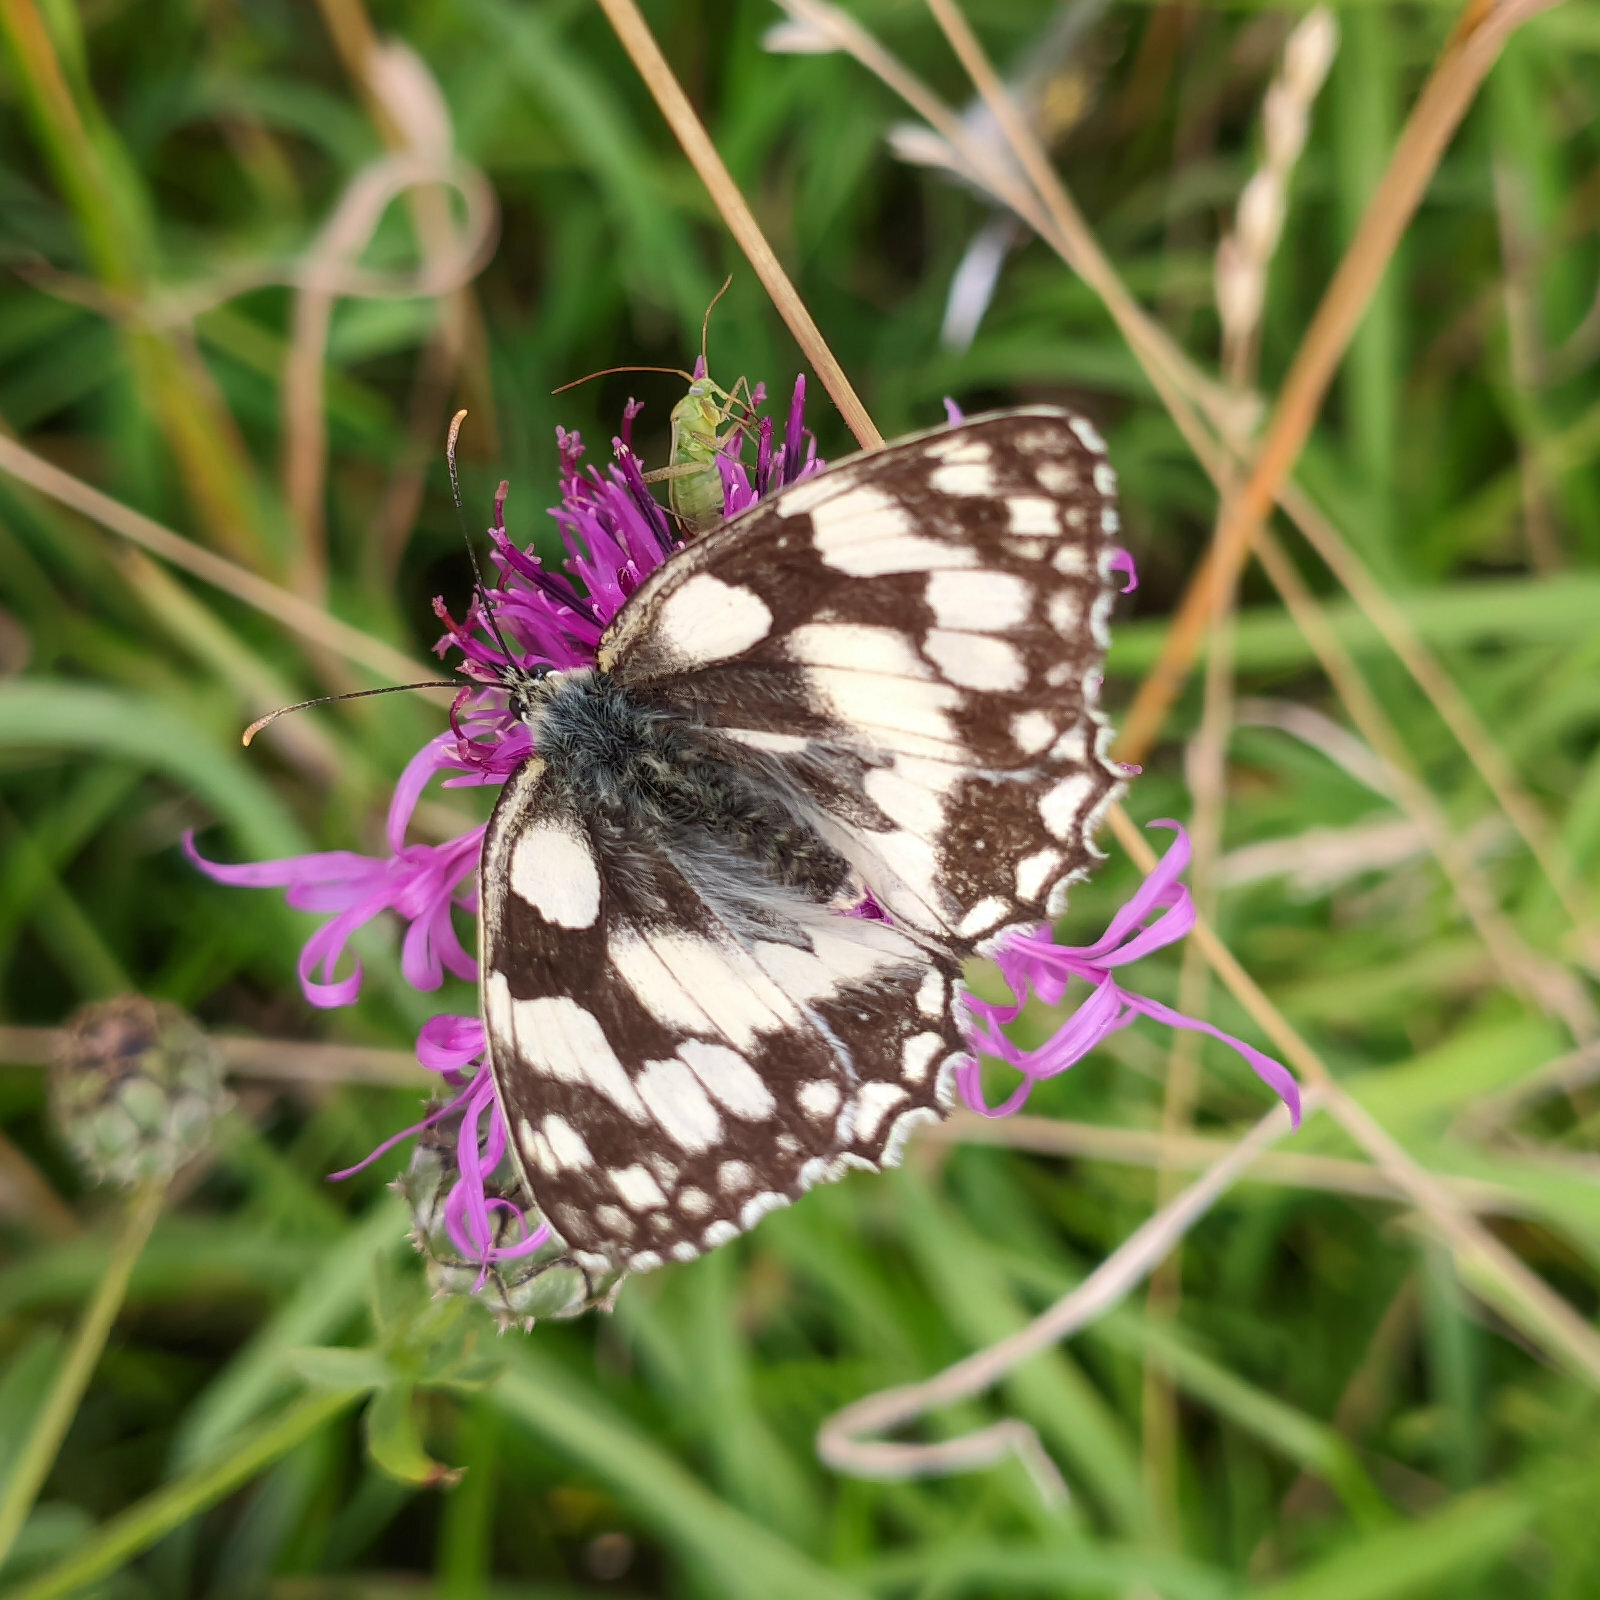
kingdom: Animalia
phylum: Arthropoda
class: Insecta
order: Lepidoptera
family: Nymphalidae
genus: Melanargia
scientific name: Melanargia galathea
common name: Marbled white
